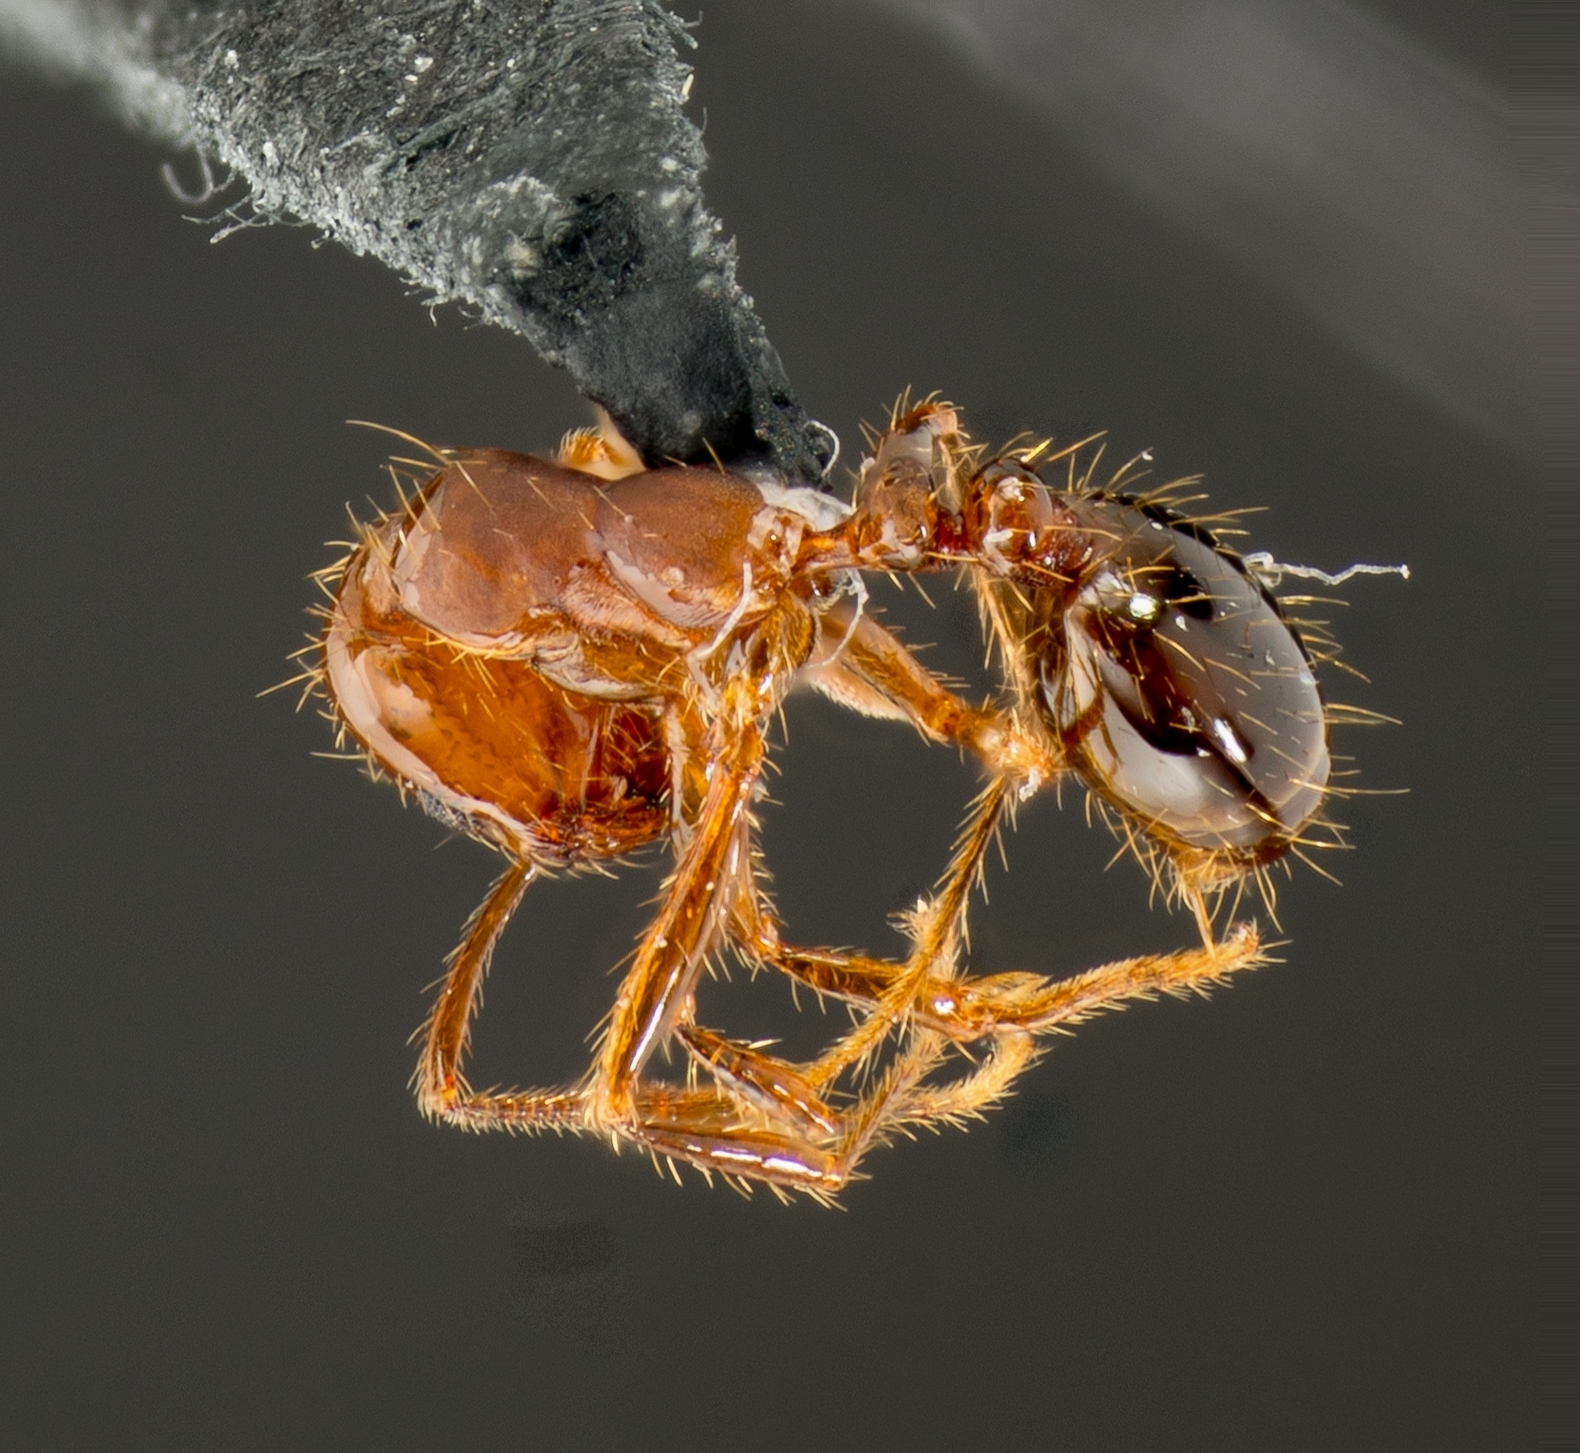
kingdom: Animalia
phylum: Arthropoda
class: Insecta
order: Hymenoptera
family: Formicidae
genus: Solenopsis
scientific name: Solenopsis invicta
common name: Red imported fire ant
